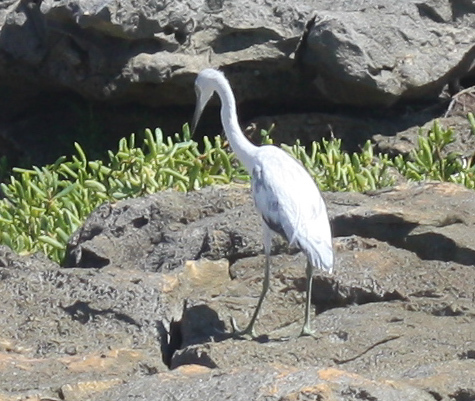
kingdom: Animalia
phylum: Chordata
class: Aves
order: Pelecaniformes
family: Ardeidae
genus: Egretta
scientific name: Egretta caerulea
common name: Little blue heron
